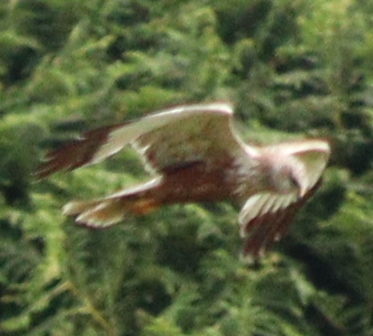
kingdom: Animalia
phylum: Chordata
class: Aves
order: Accipitriformes
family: Accipitridae
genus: Circus
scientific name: Circus aeruginosus
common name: Western marsh harrier
